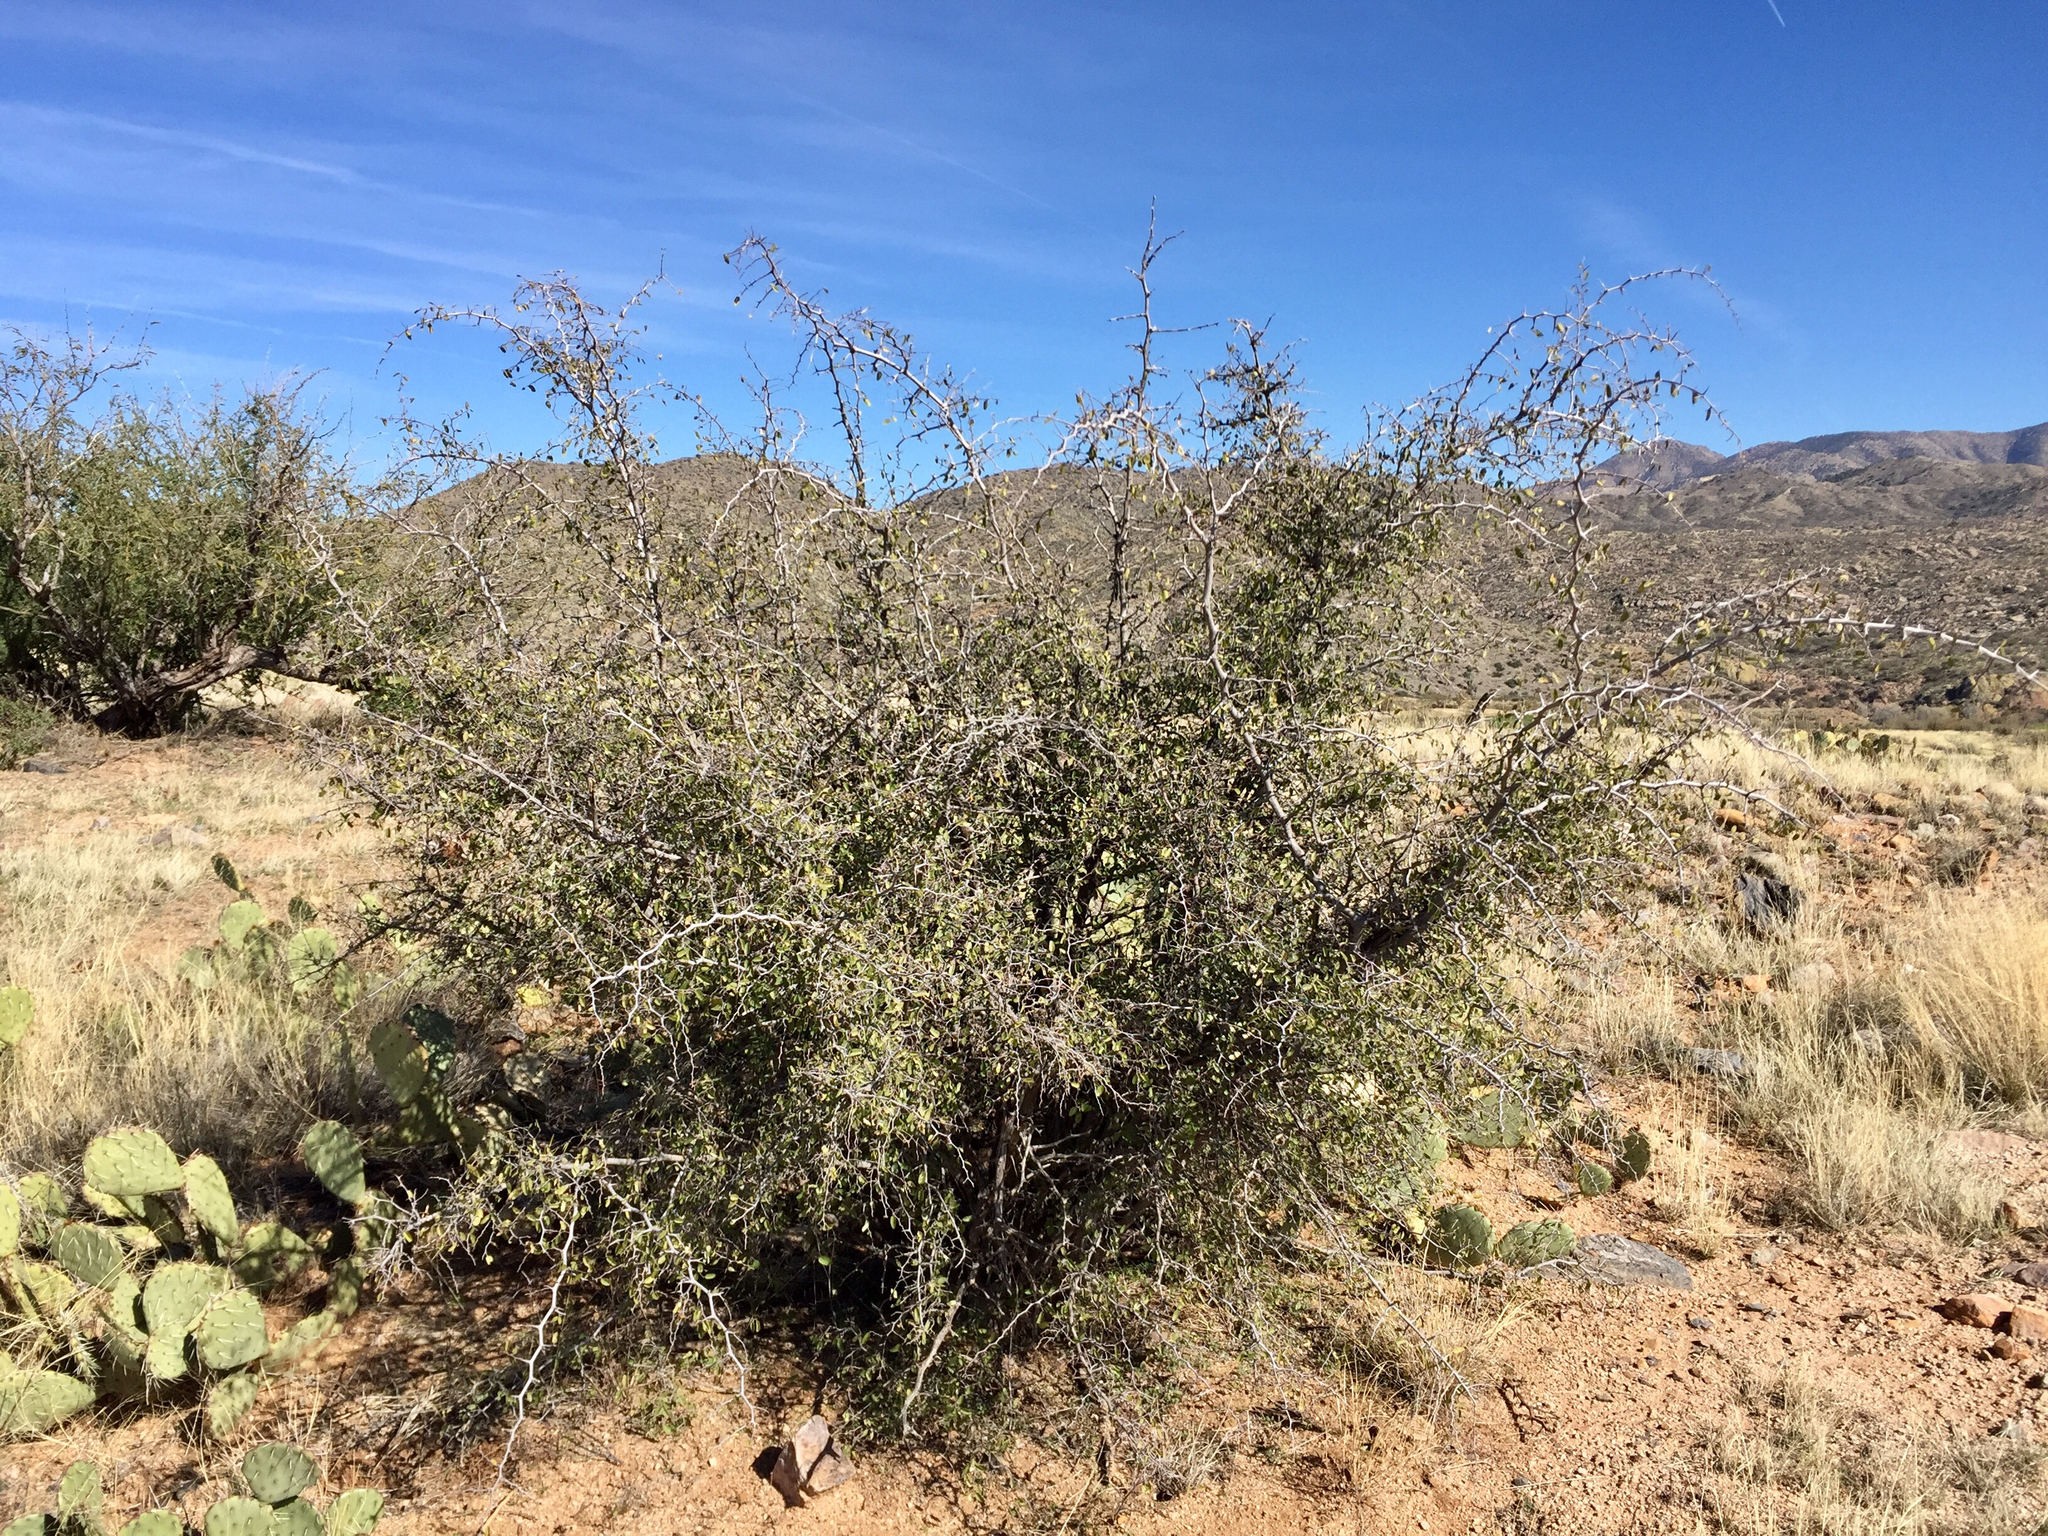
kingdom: Plantae
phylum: Tracheophyta
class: Magnoliopsida
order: Rosales
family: Cannabaceae
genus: Celtis
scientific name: Celtis pallida
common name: Desert hackberry
